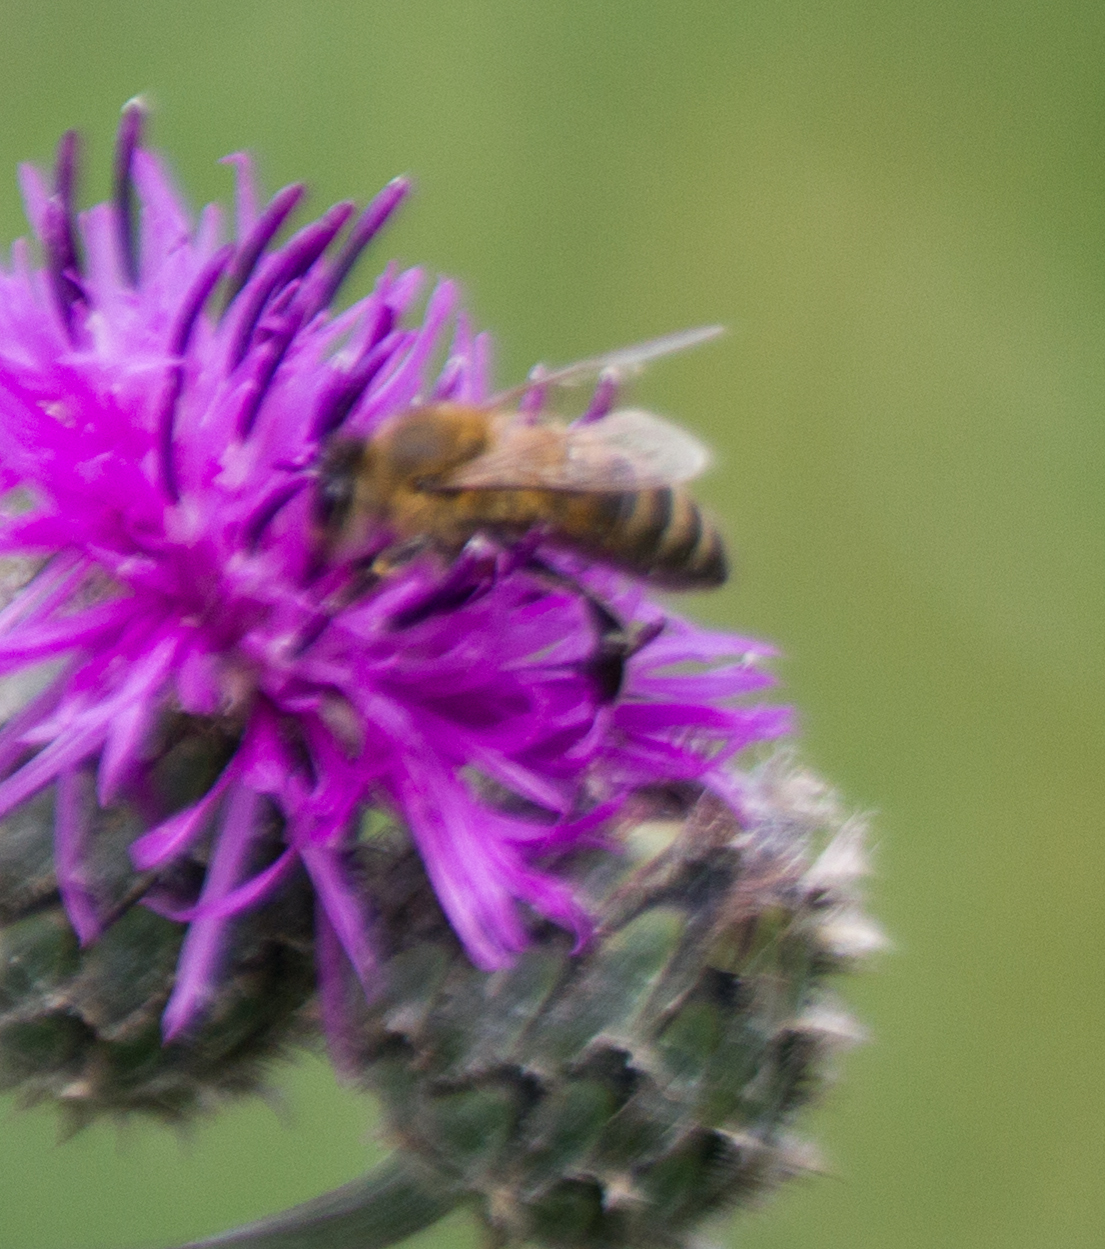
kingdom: Animalia
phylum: Arthropoda
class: Insecta
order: Hymenoptera
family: Apidae
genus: Apis
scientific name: Apis mellifera
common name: Honey bee
